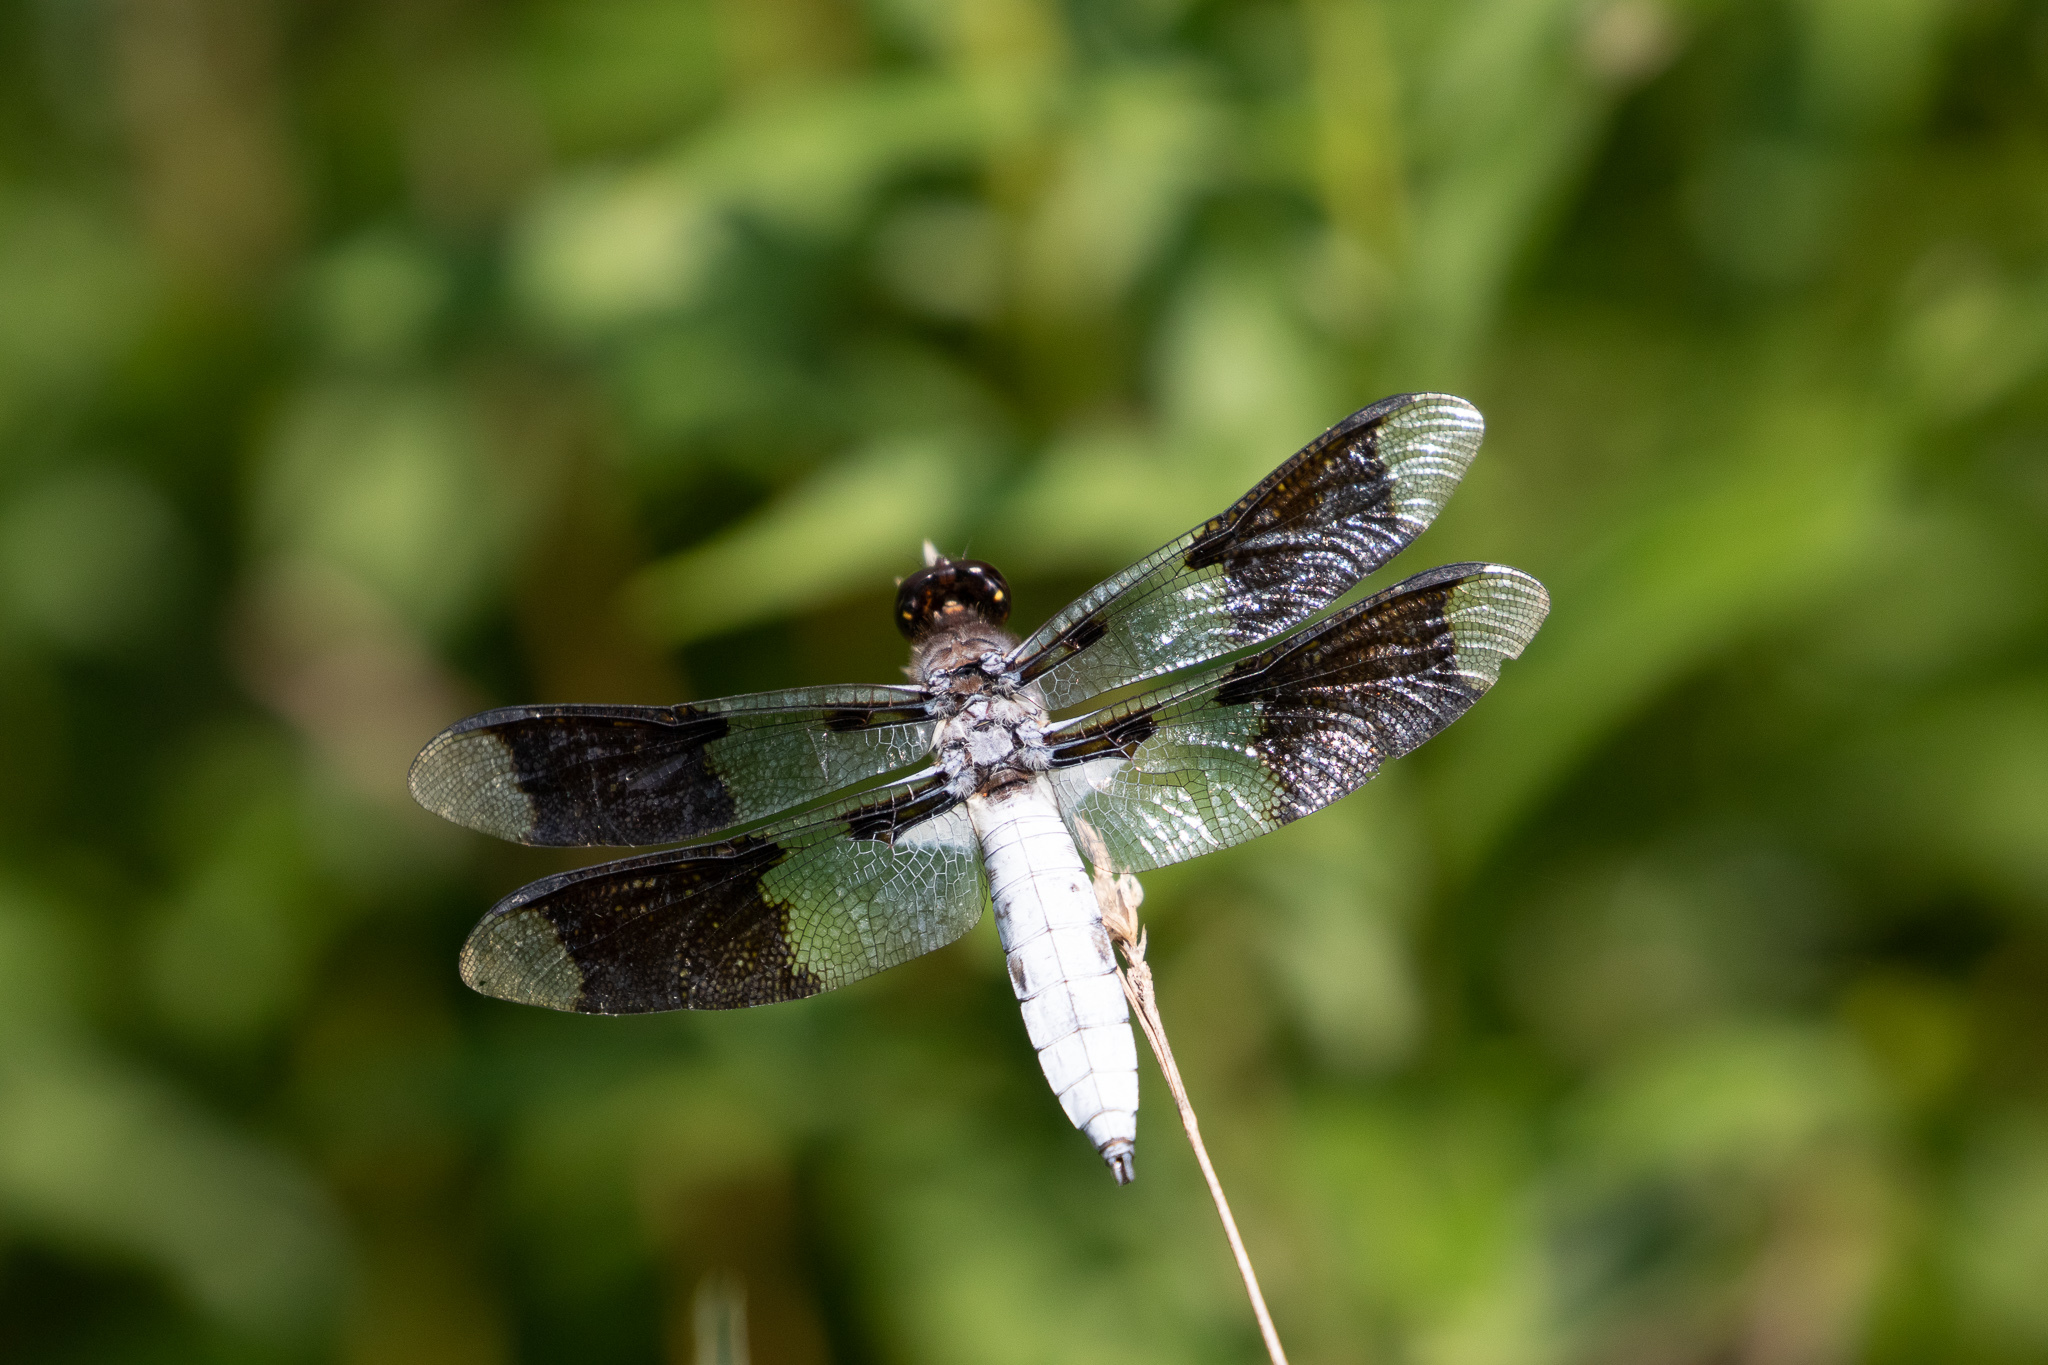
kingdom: Animalia
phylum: Arthropoda
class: Insecta
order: Odonata
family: Libellulidae
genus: Plathemis
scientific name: Plathemis lydia
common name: Common whitetail
